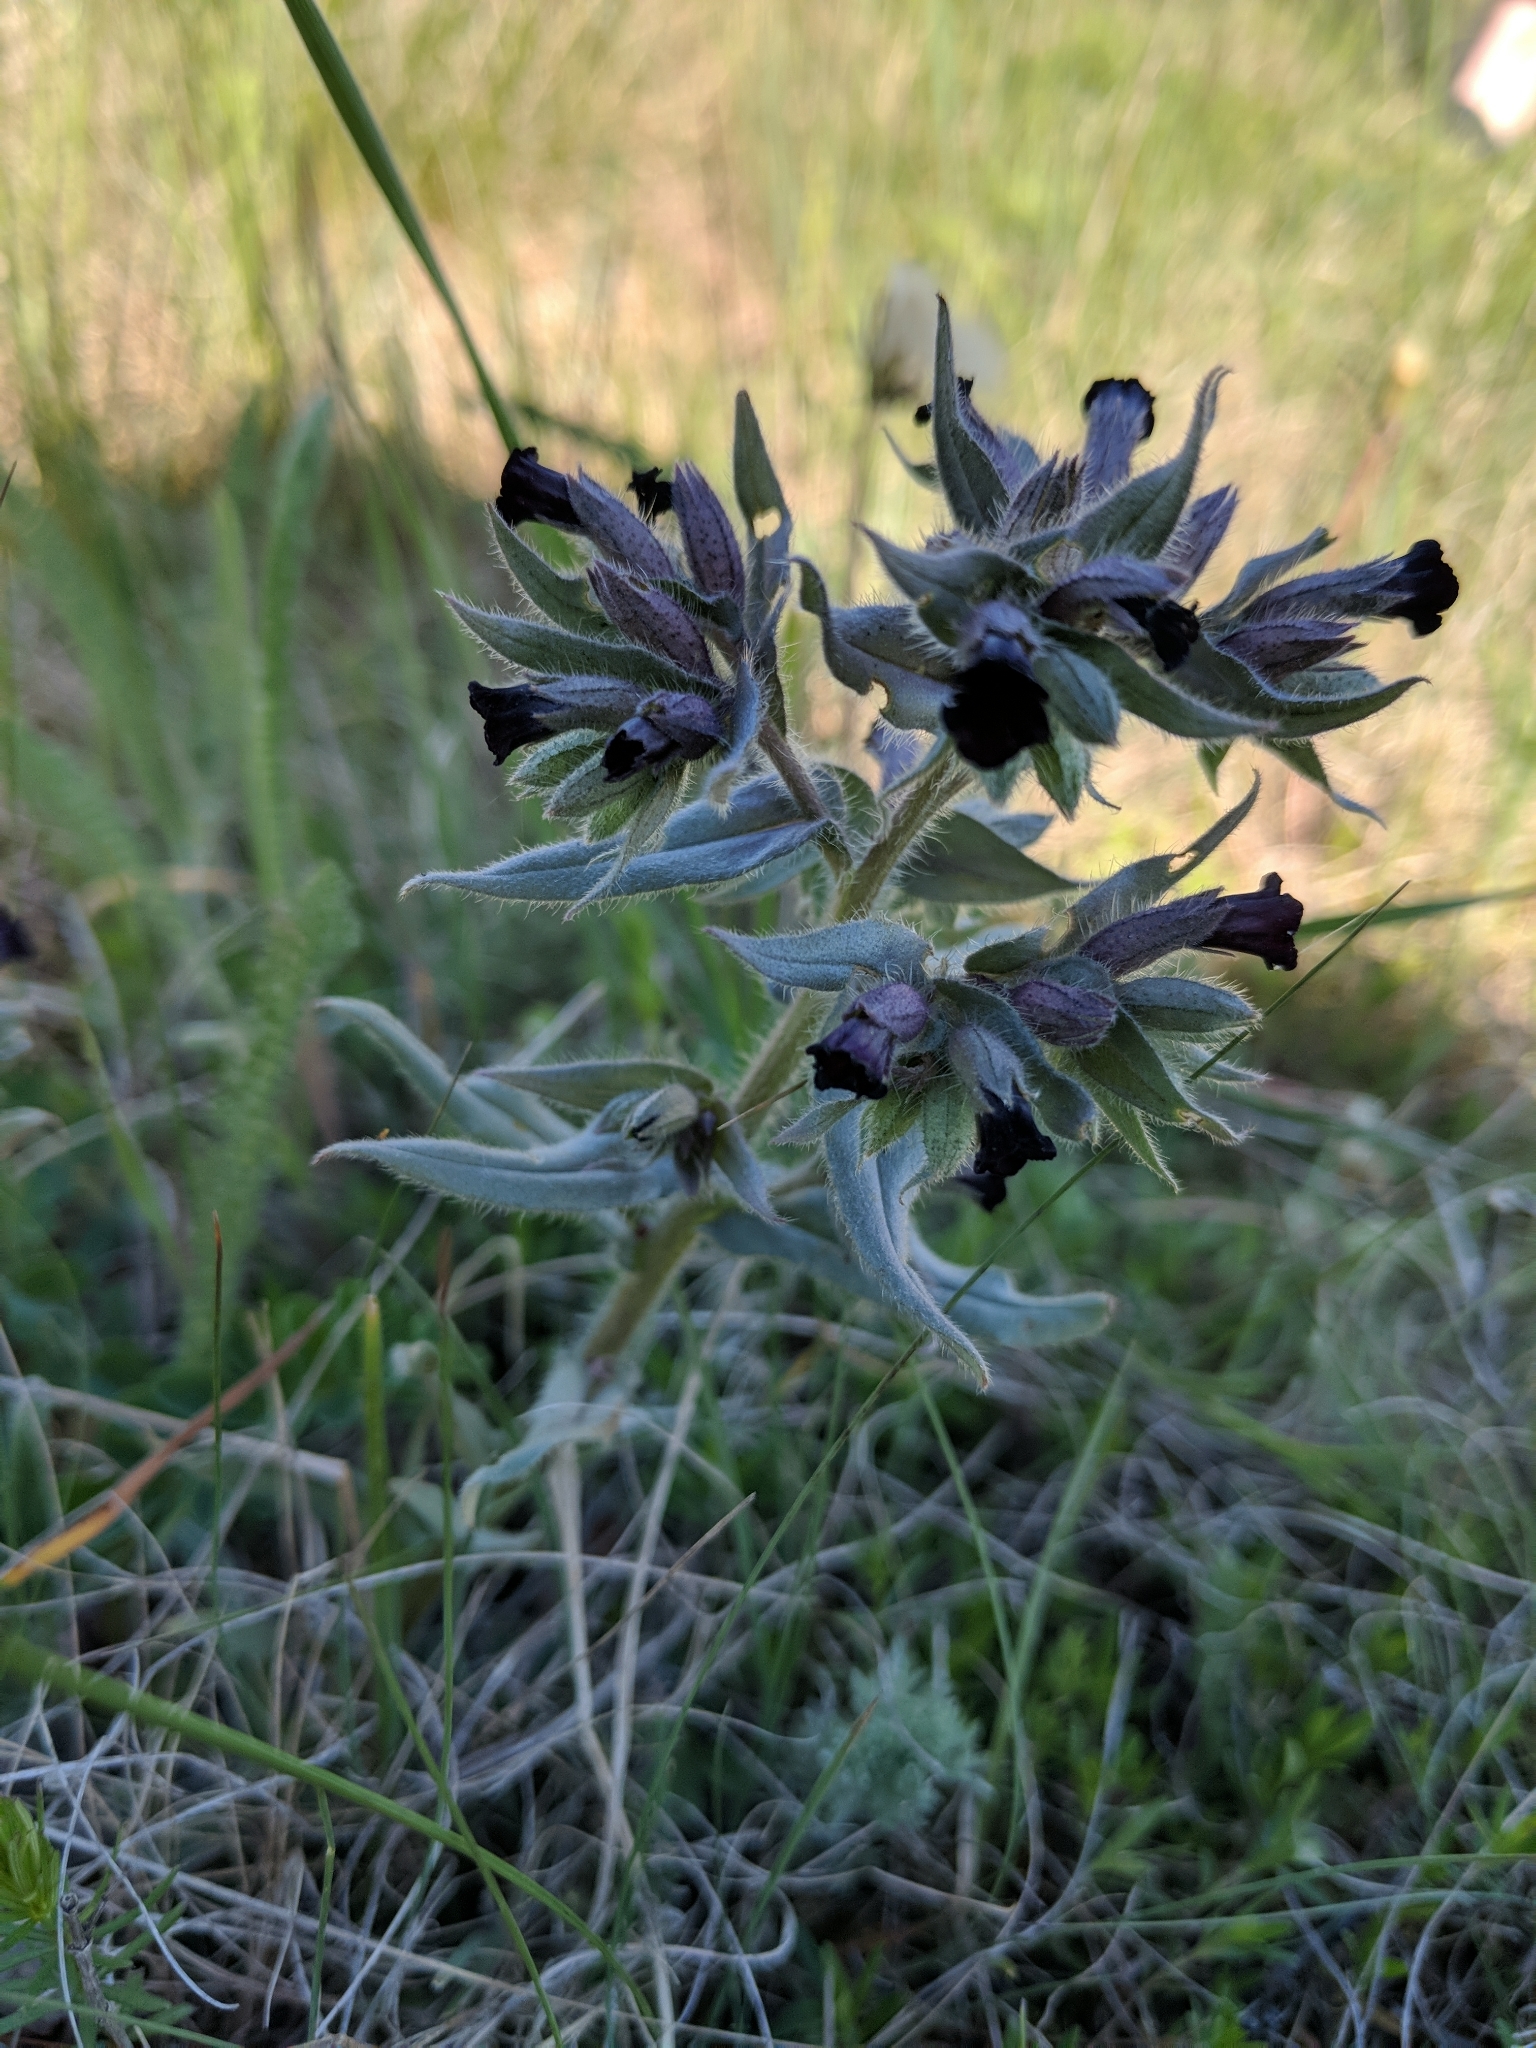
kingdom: Plantae
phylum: Tracheophyta
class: Magnoliopsida
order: Boraginales
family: Boraginaceae
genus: Nonea
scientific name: Nonea pulla
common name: Brown nonea
